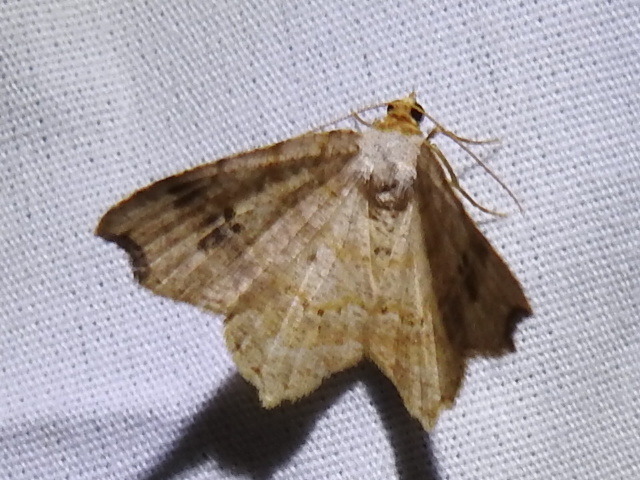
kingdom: Animalia
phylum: Arthropoda
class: Insecta
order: Lepidoptera
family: Geometridae
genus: Macaria
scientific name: Macaria aemulataria
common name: Common angle
